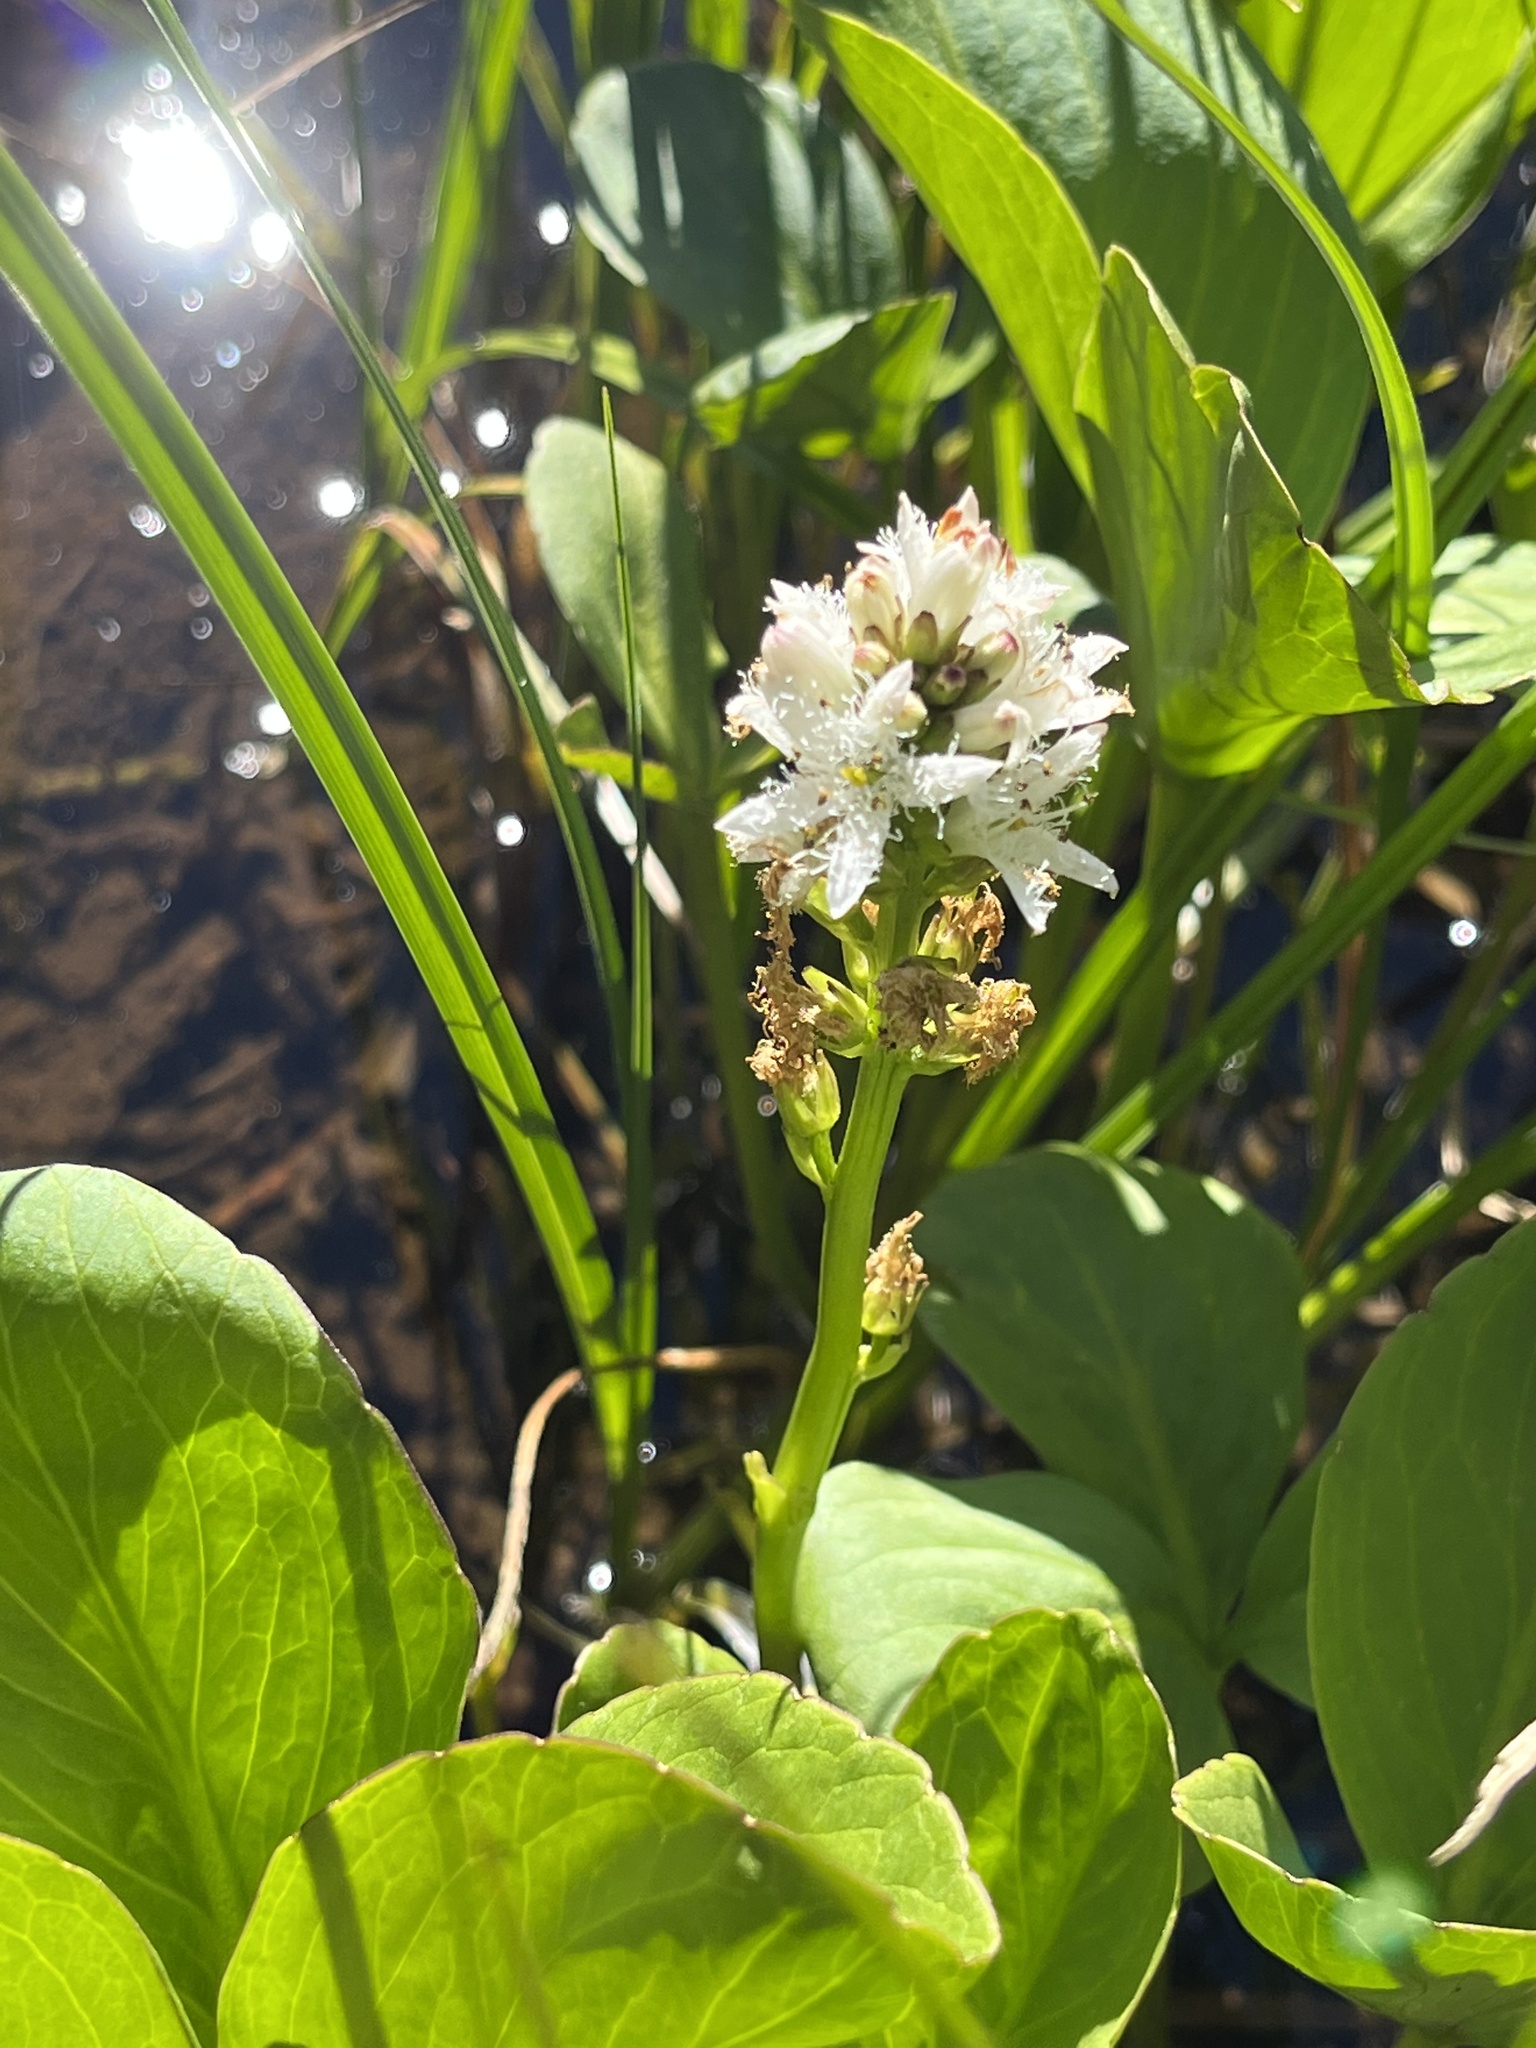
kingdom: Plantae
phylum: Tracheophyta
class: Magnoliopsida
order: Asterales
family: Menyanthaceae
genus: Menyanthes
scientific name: Menyanthes trifoliata
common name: Bogbean
